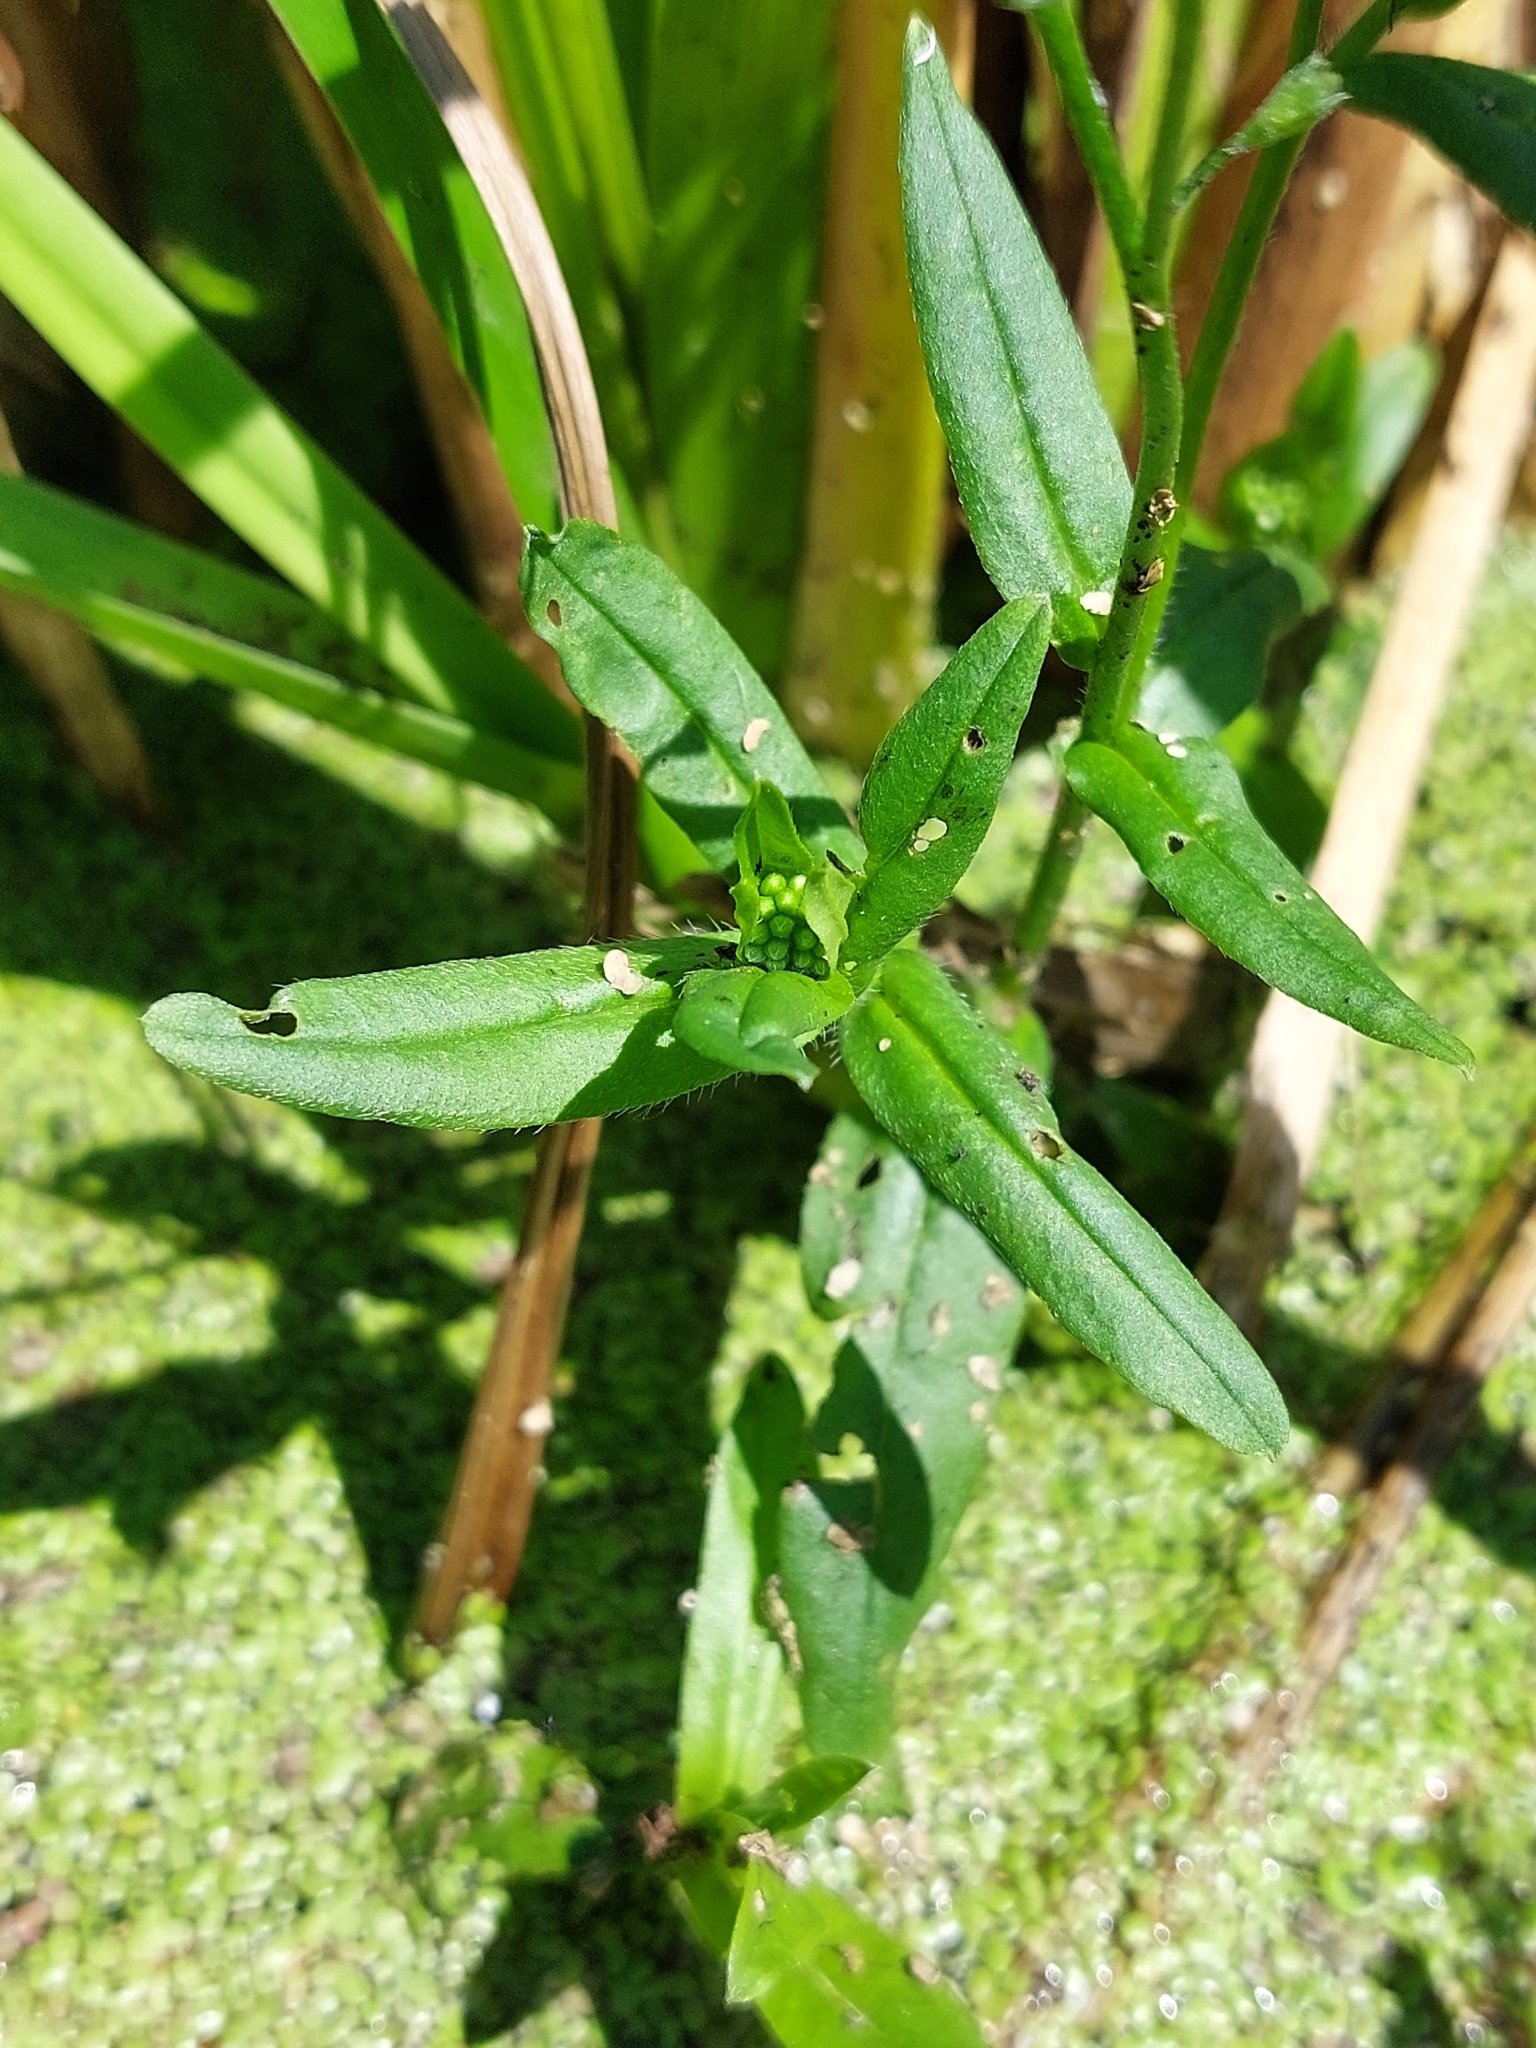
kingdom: Plantae
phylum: Tracheophyta
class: Magnoliopsida
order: Boraginales
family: Boraginaceae
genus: Myosotis
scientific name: Myosotis scorpioides
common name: Water forget-me-not
